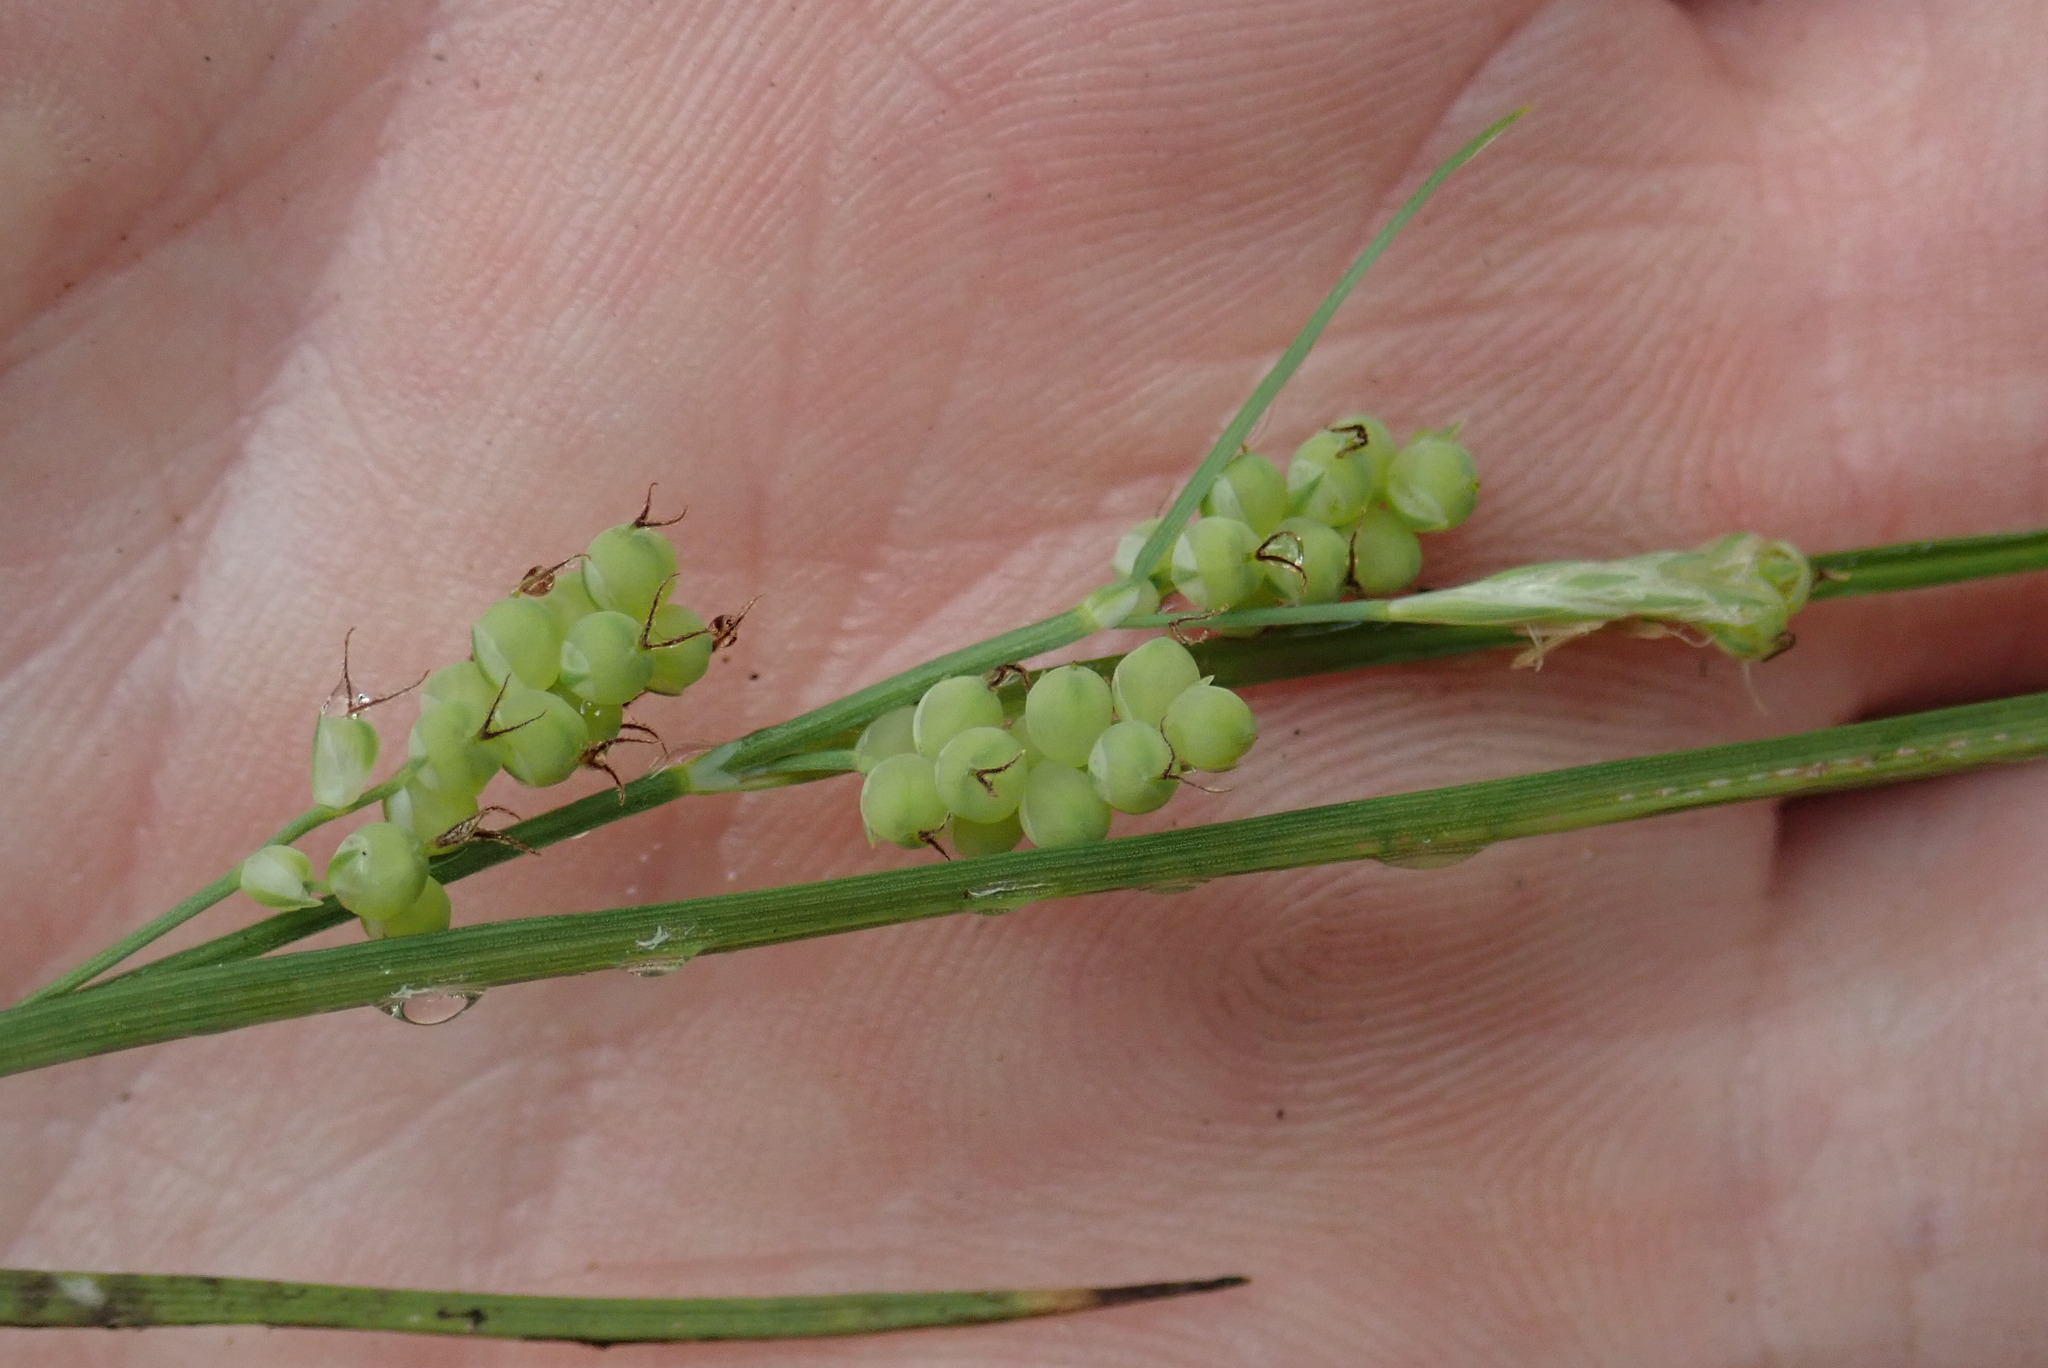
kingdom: Plantae
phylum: Tracheophyta
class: Liliopsida
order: Poales
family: Cyperaceae
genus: Carex
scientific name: Carex aurea
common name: Golden sedge
